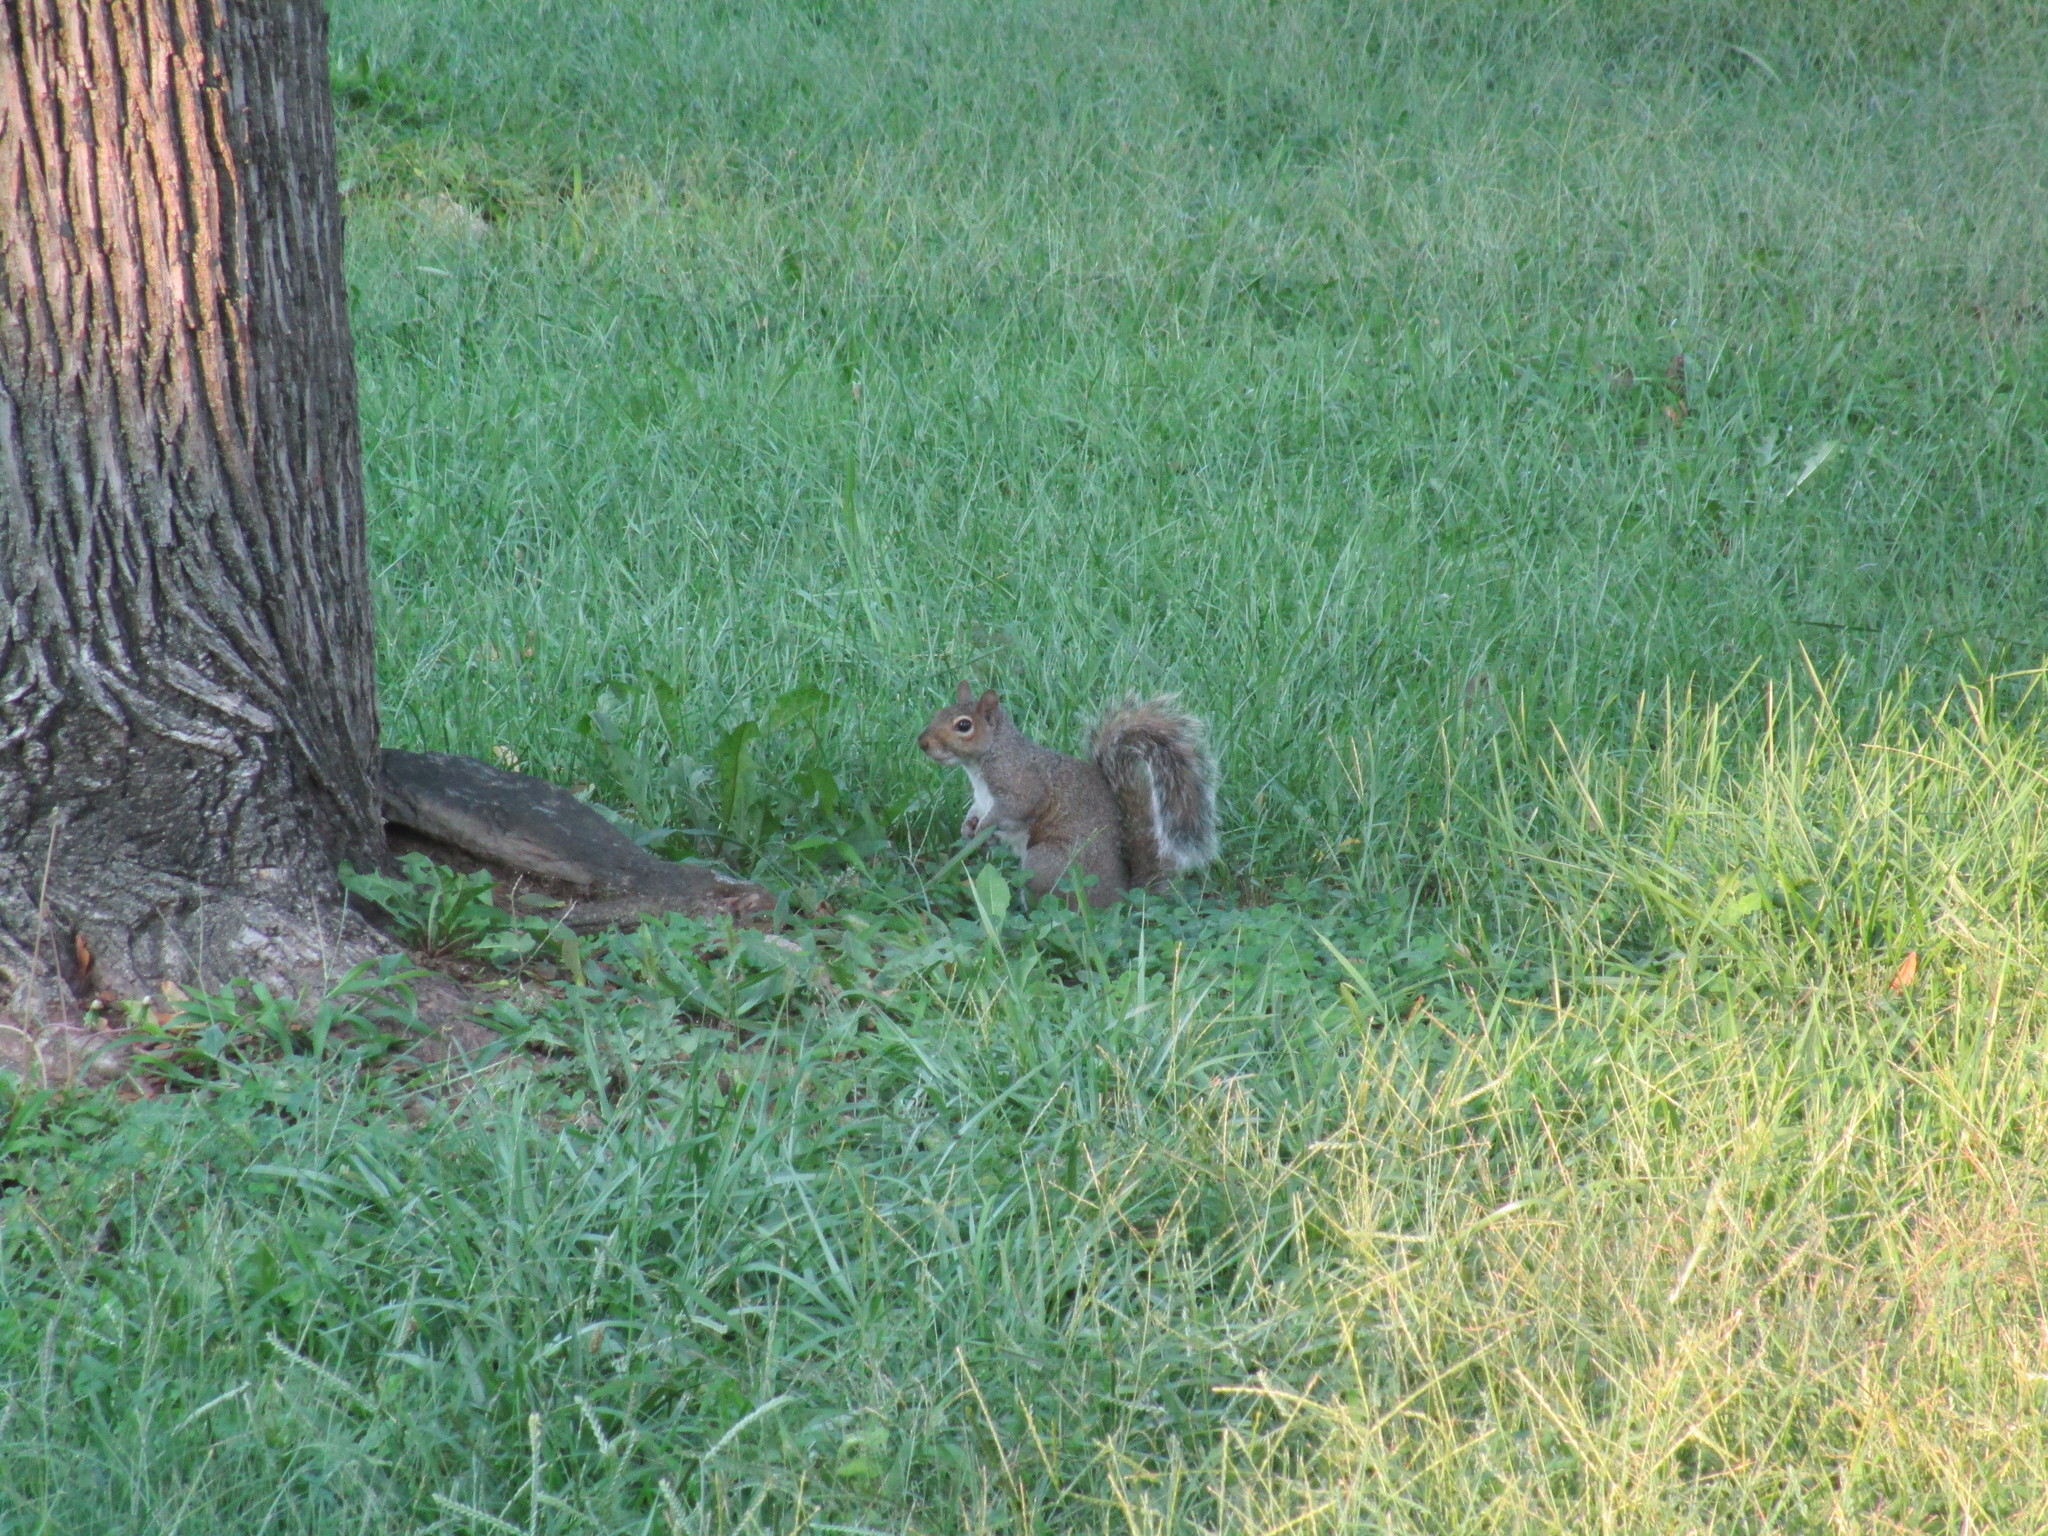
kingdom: Animalia
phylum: Chordata
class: Mammalia
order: Rodentia
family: Sciuridae
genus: Sciurus
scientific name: Sciurus carolinensis
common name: Eastern gray squirrel
